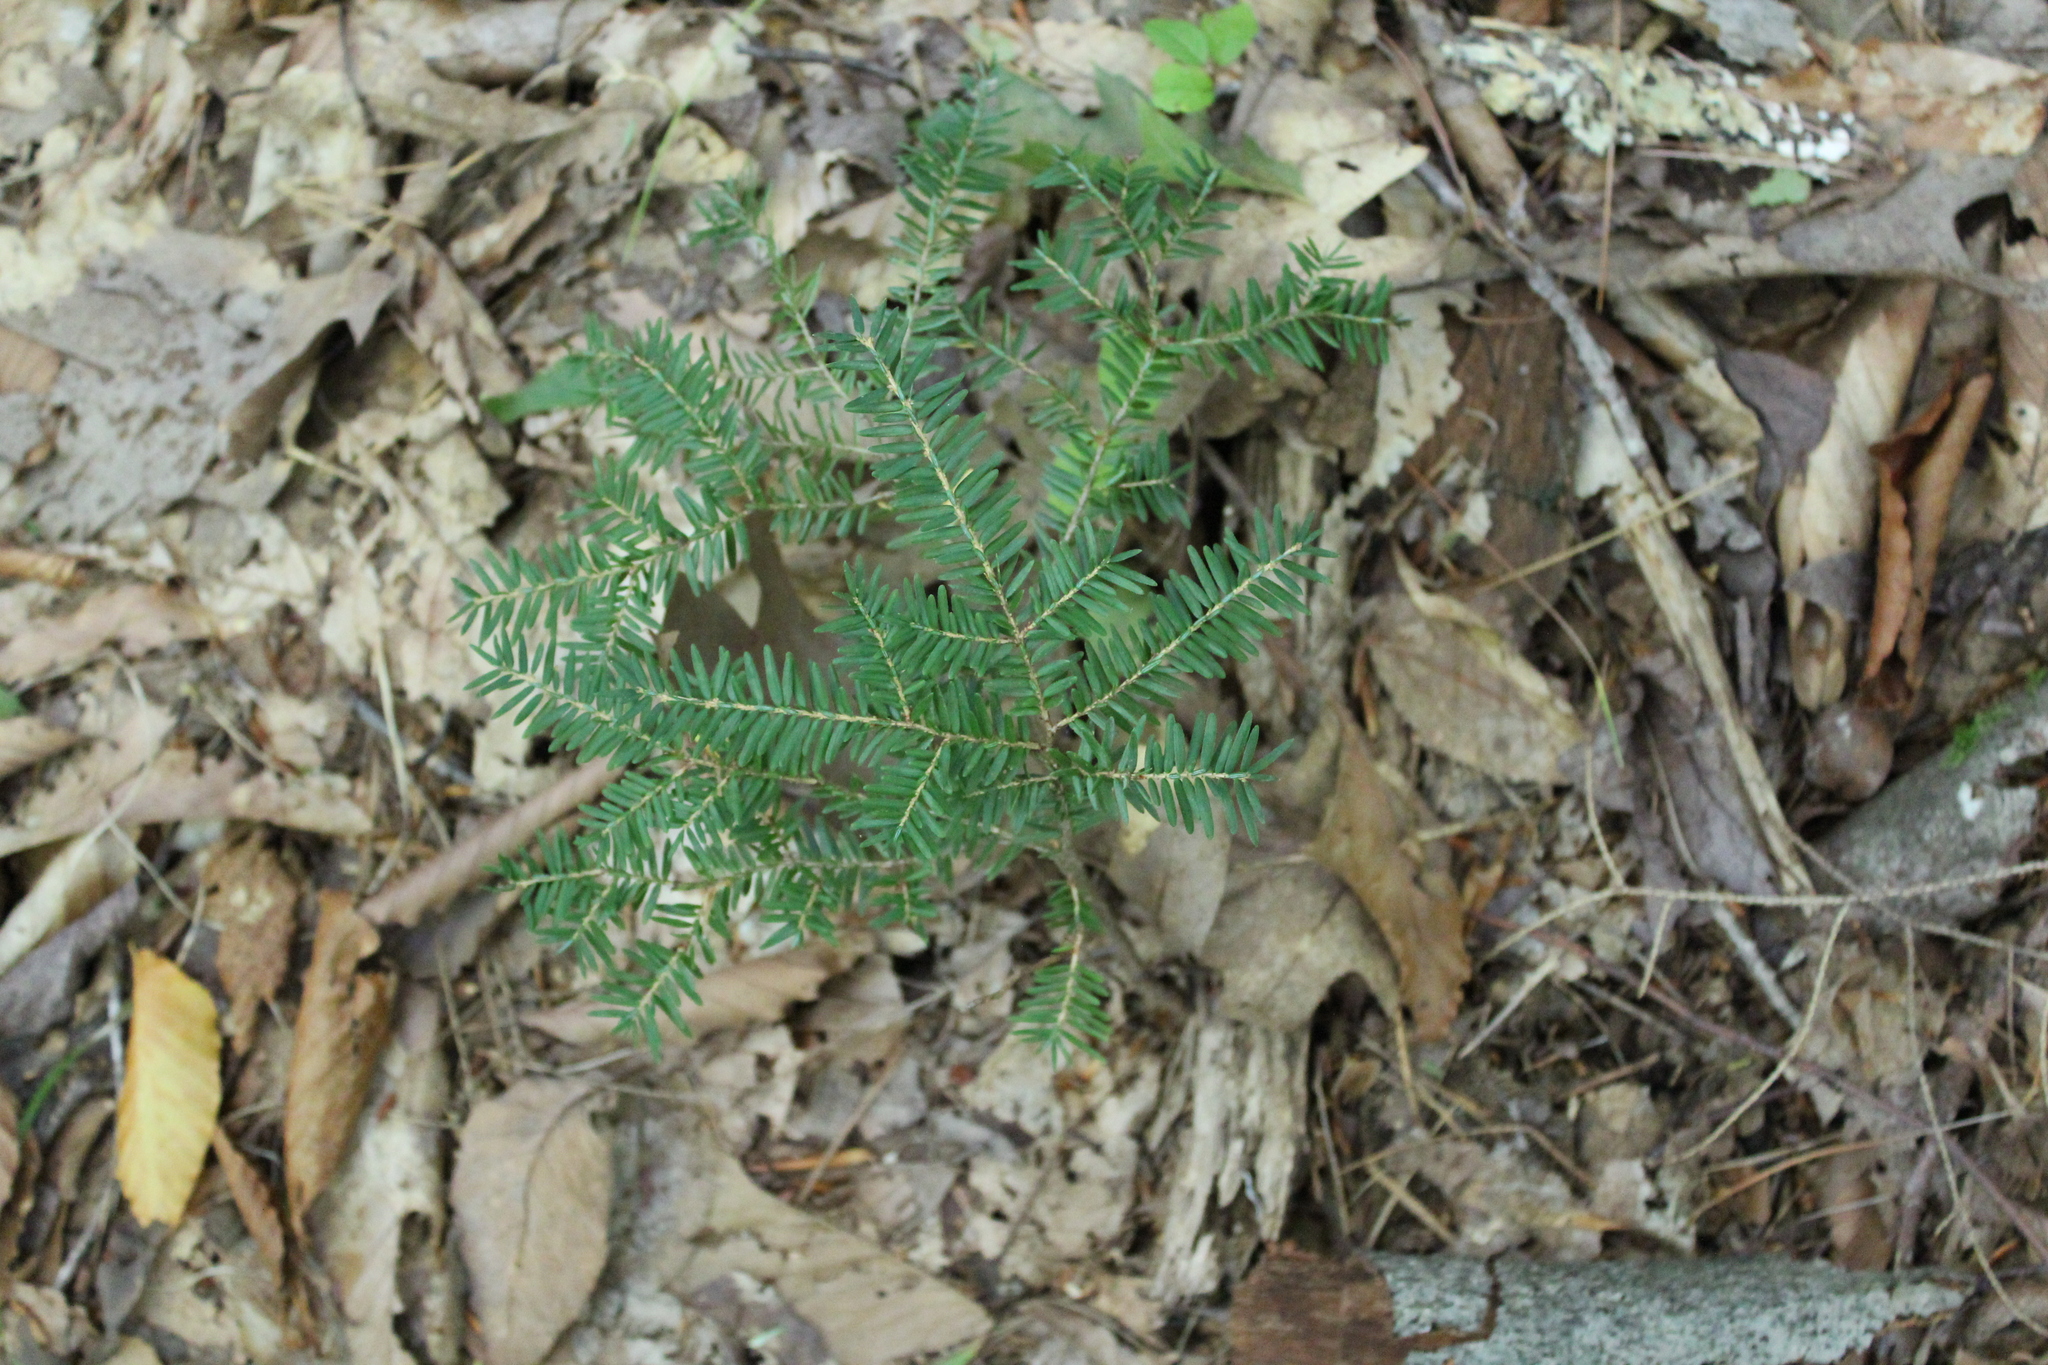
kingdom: Plantae
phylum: Tracheophyta
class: Pinopsida
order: Pinales
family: Pinaceae
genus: Tsuga
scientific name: Tsuga canadensis
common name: Eastern hemlock
